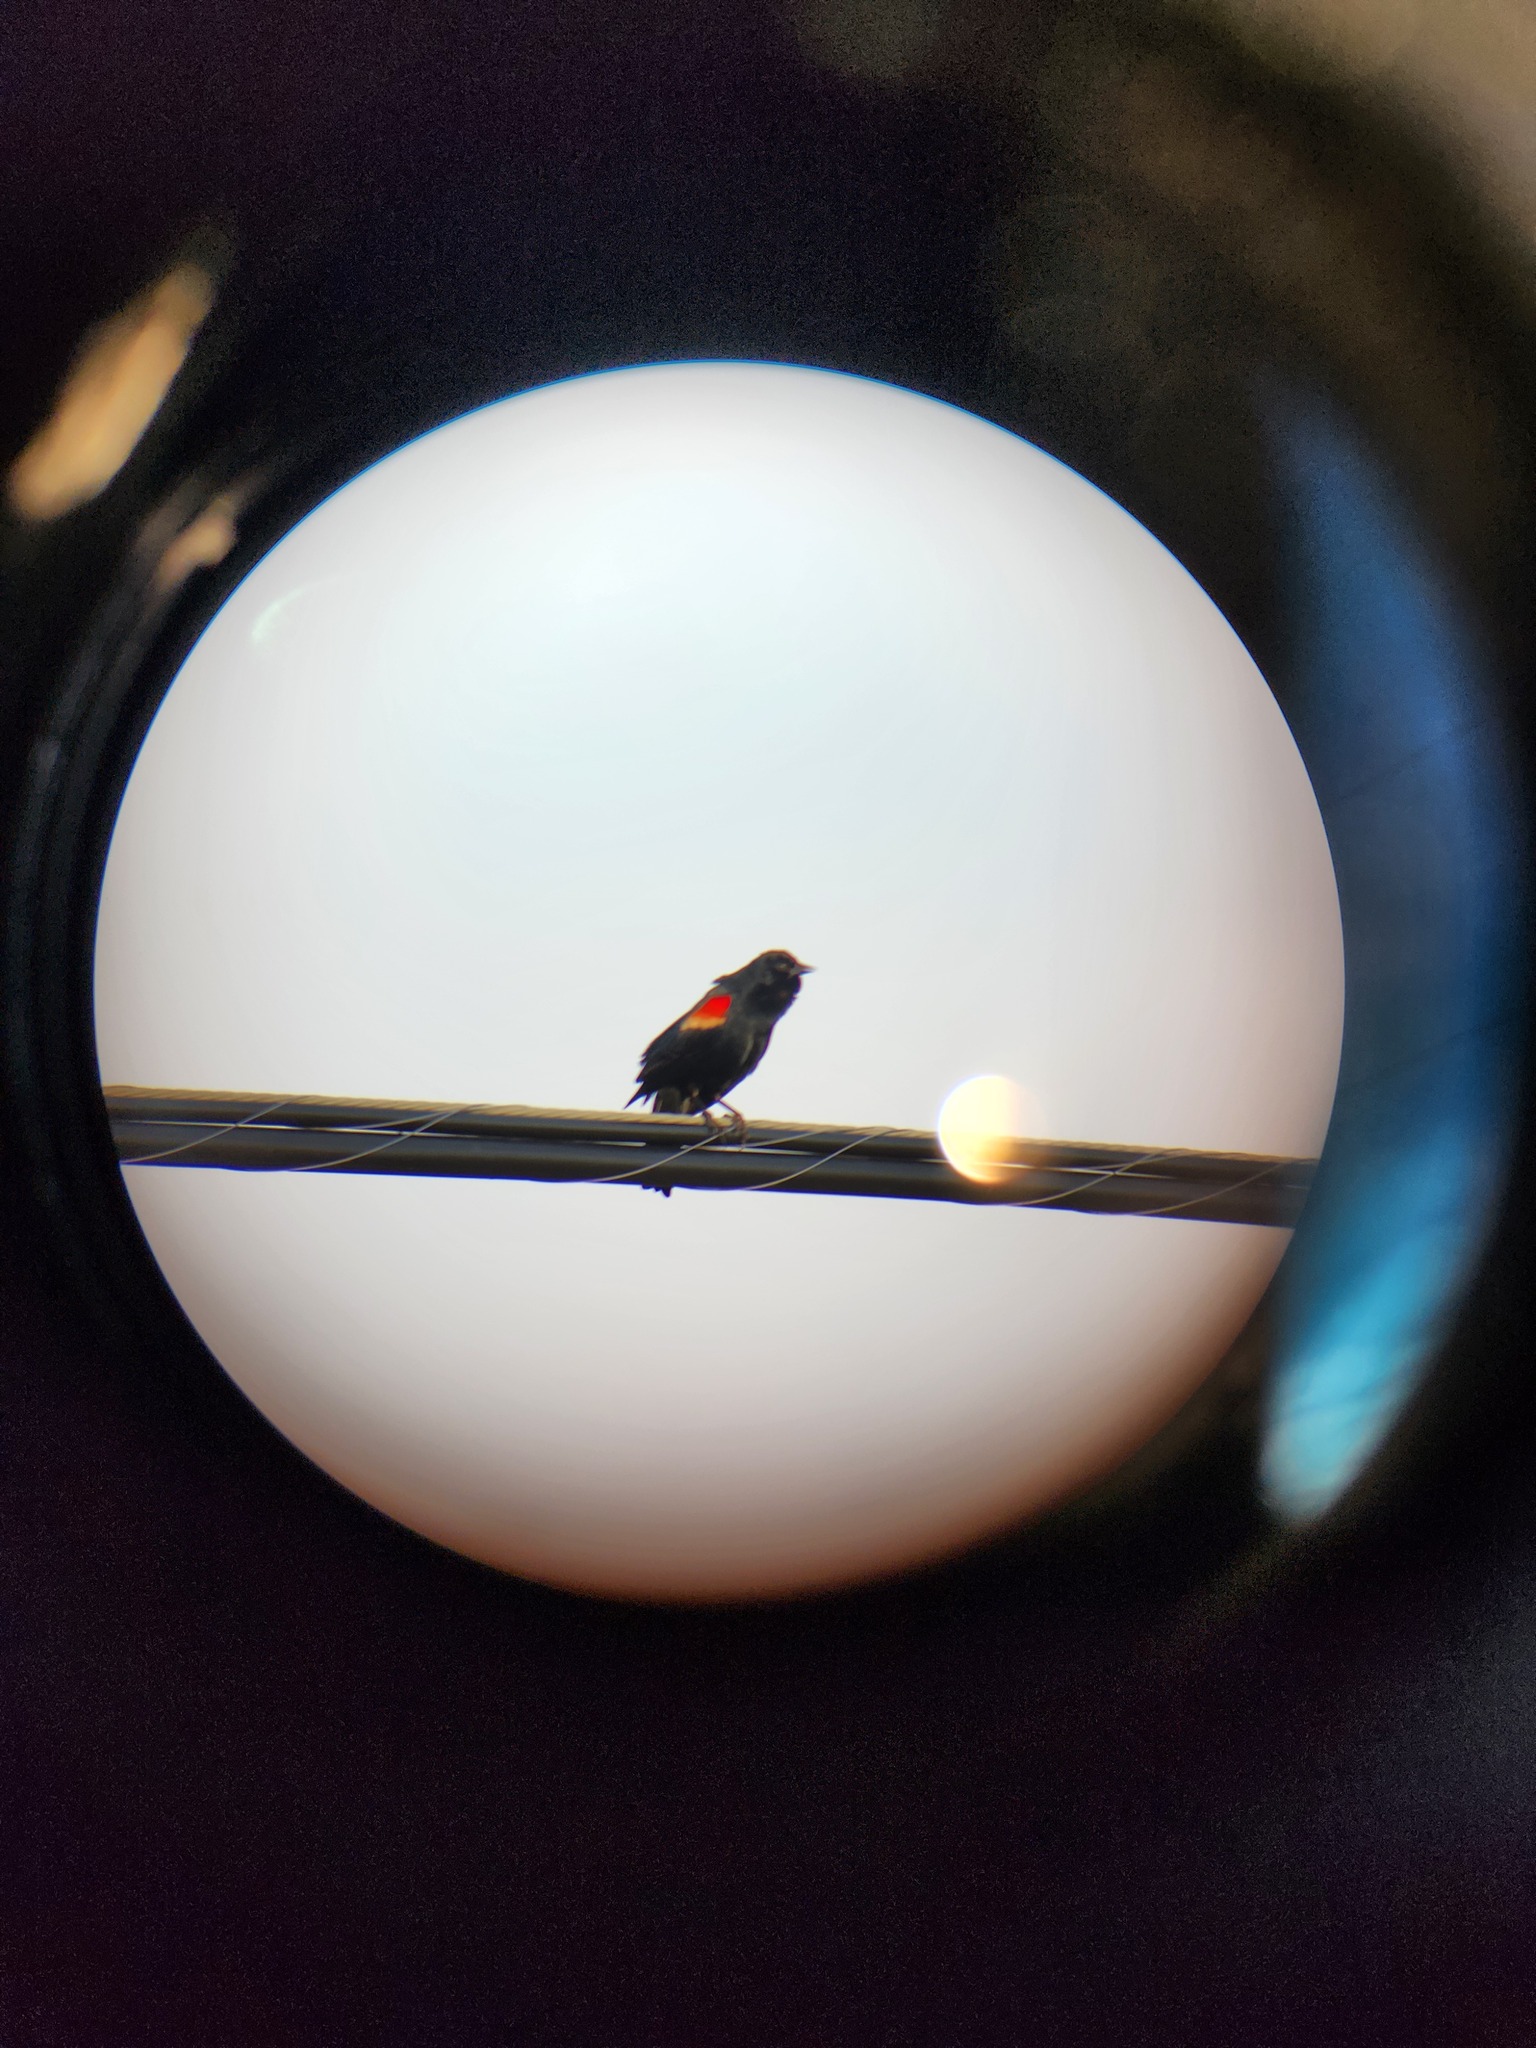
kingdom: Animalia
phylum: Chordata
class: Aves
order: Passeriformes
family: Icteridae
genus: Agelaius
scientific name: Agelaius phoeniceus
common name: Red-winged blackbird
